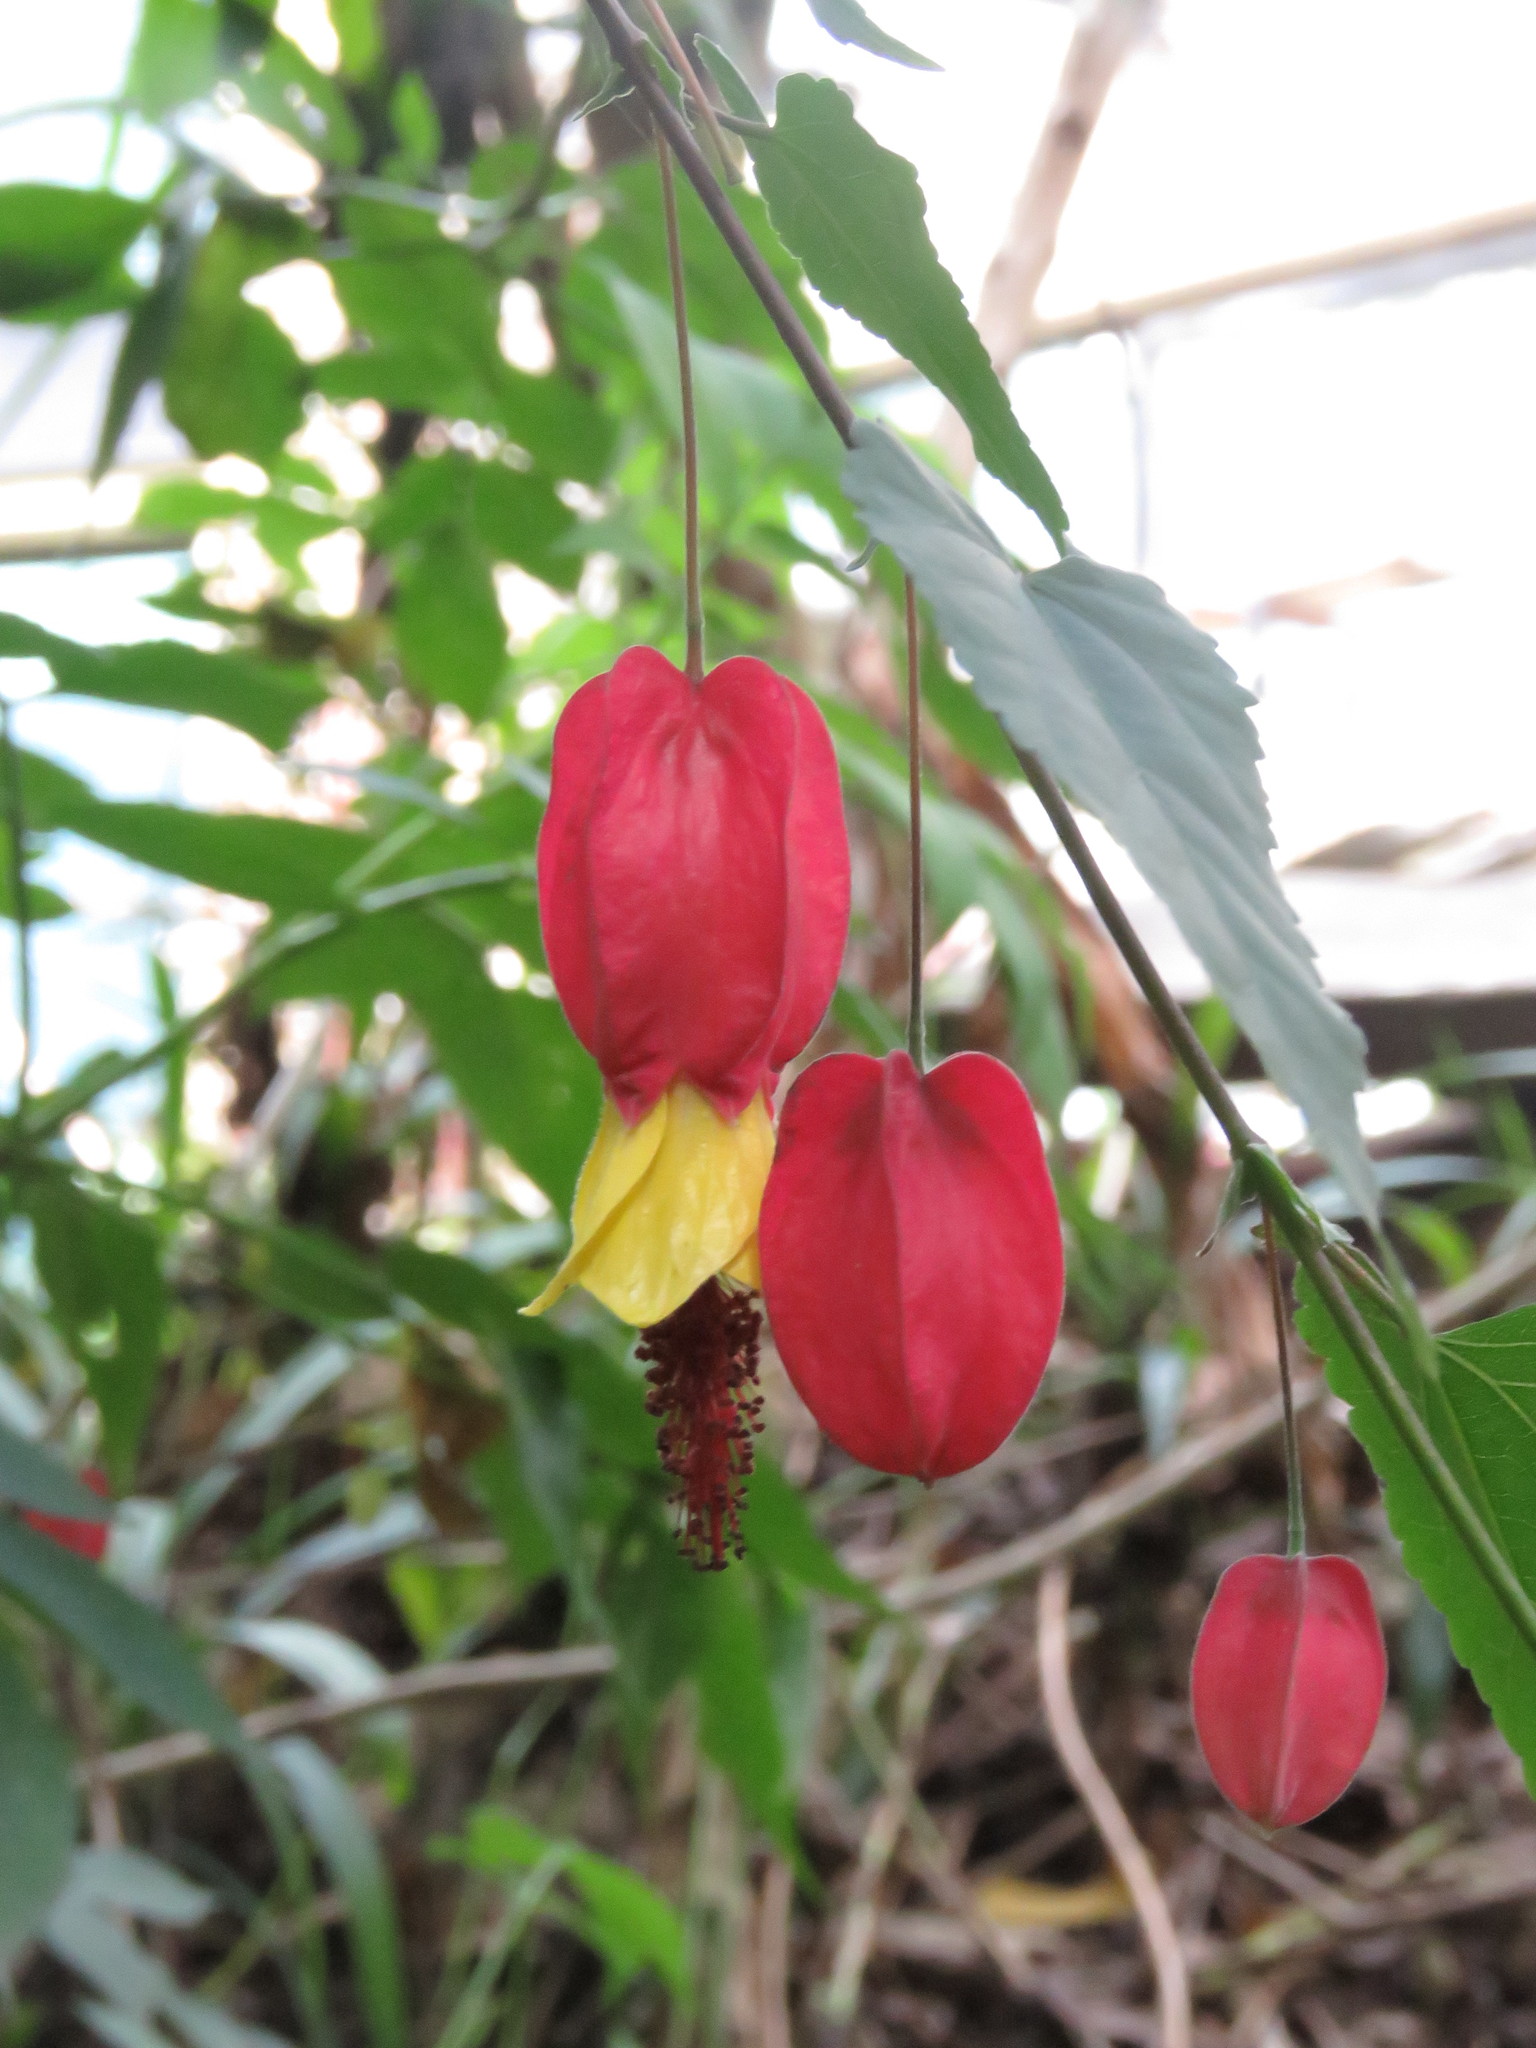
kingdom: Plantae
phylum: Tracheophyta
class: Magnoliopsida
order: Malvales
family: Malvaceae
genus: Callianthe
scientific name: Callianthe megapotamica
